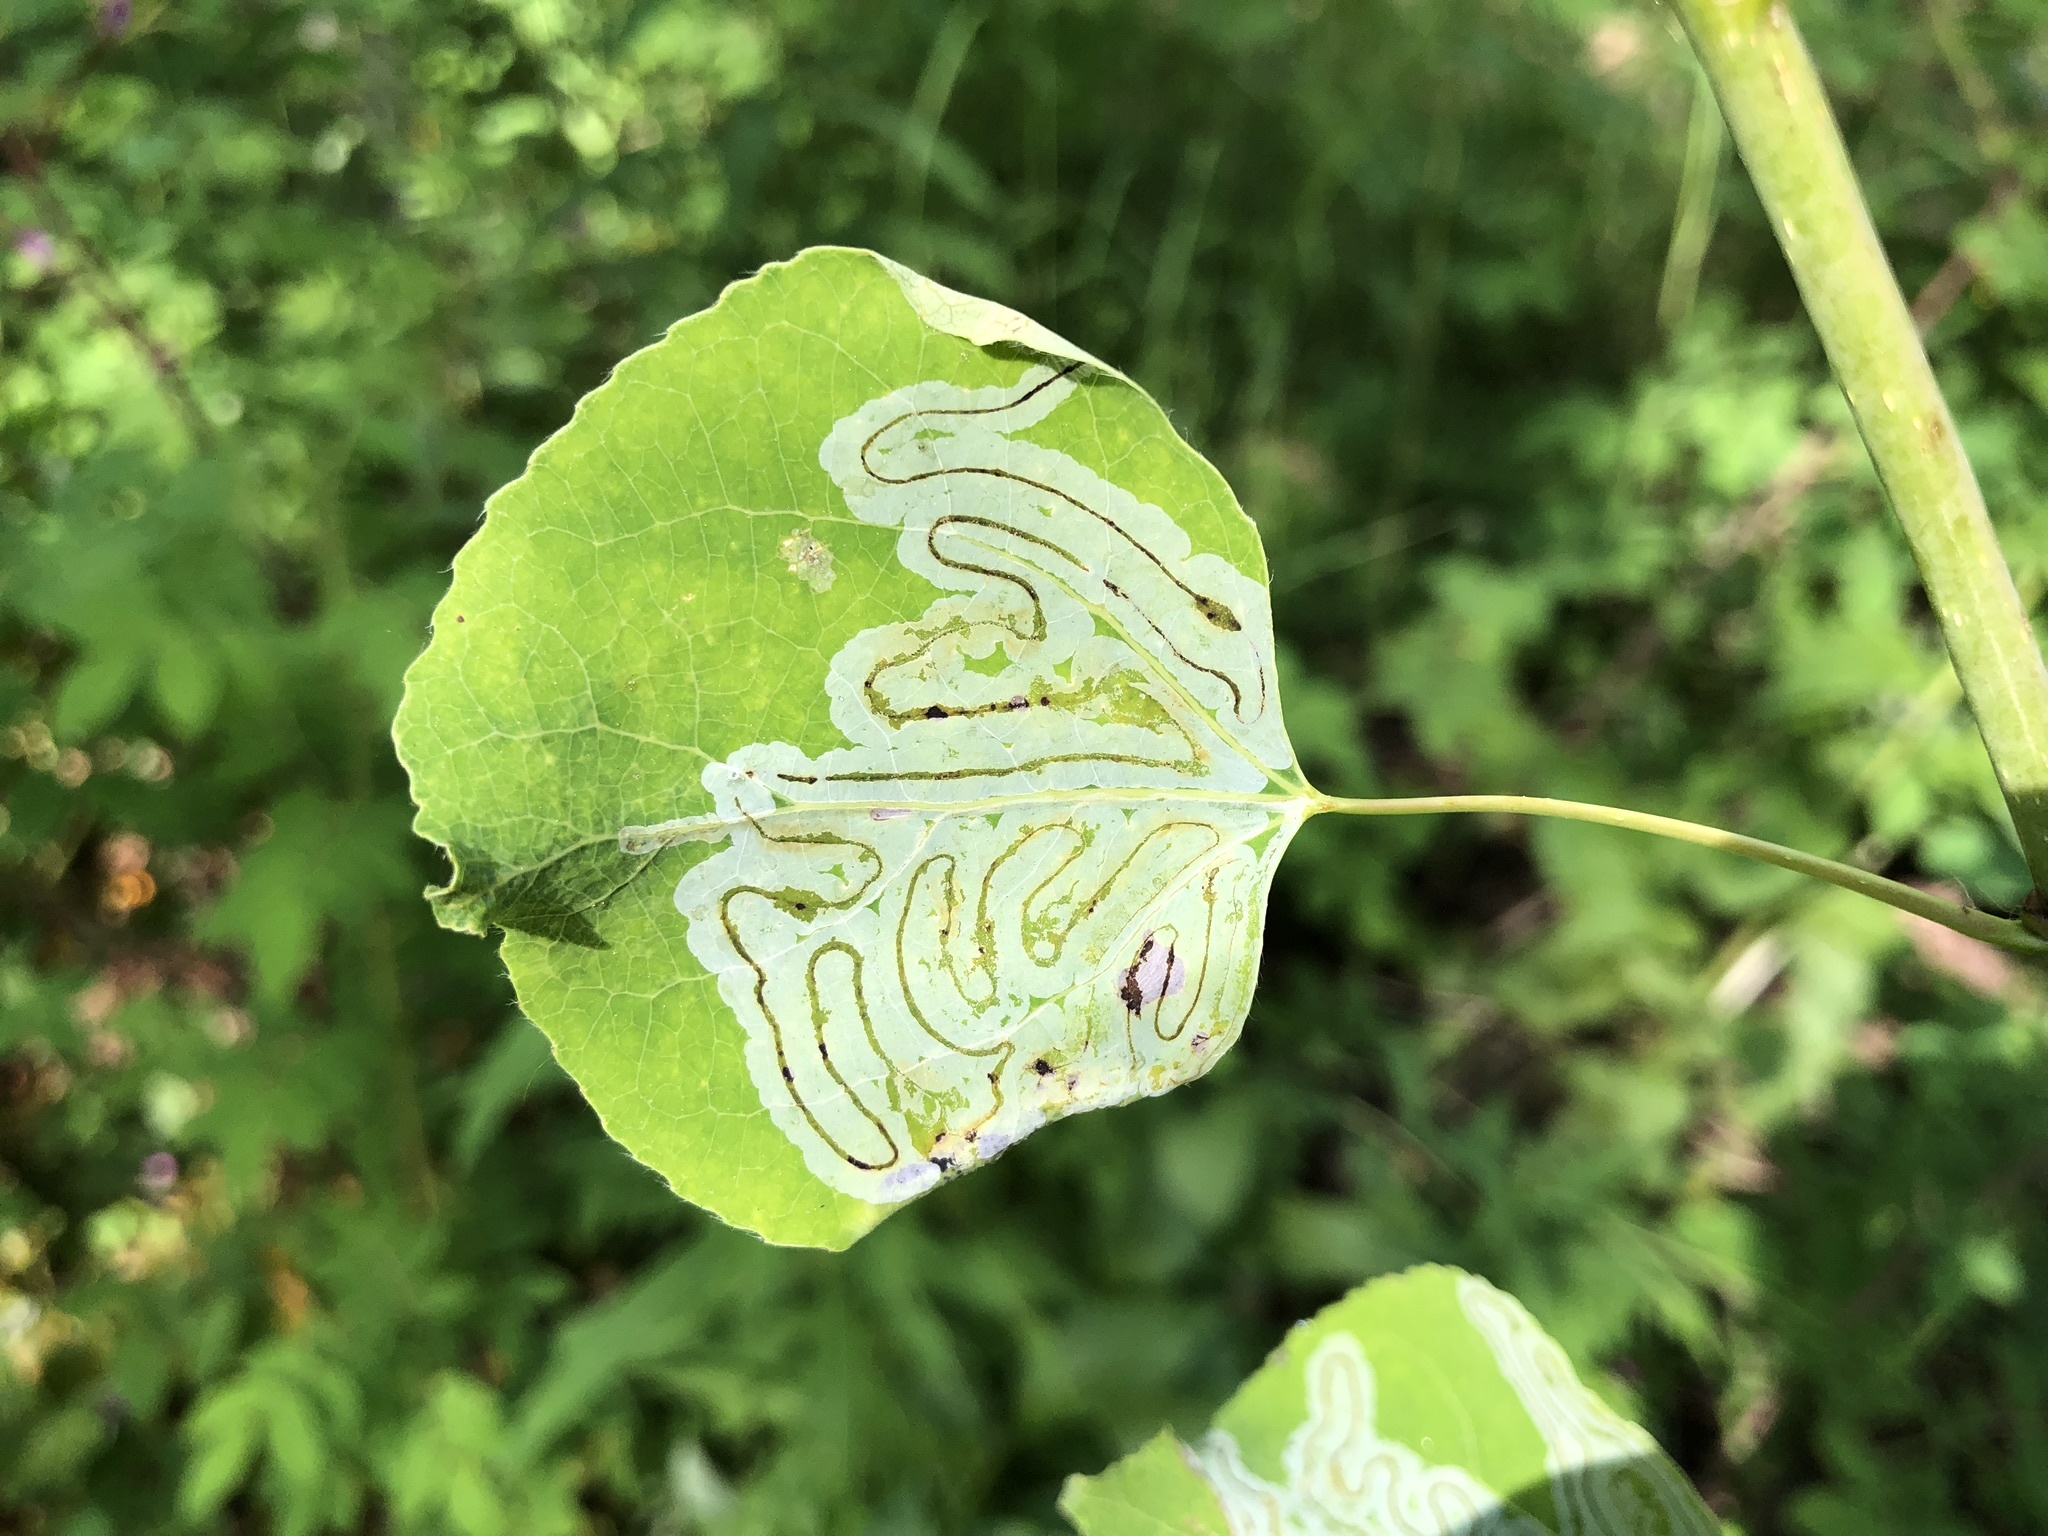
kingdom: Animalia
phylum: Arthropoda
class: Insecta
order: Lepidoptera
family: Gracillariidae
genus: Phyllocnistis
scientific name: Phyllocnistis populiella
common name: Aspen serpentine leafminer moth
